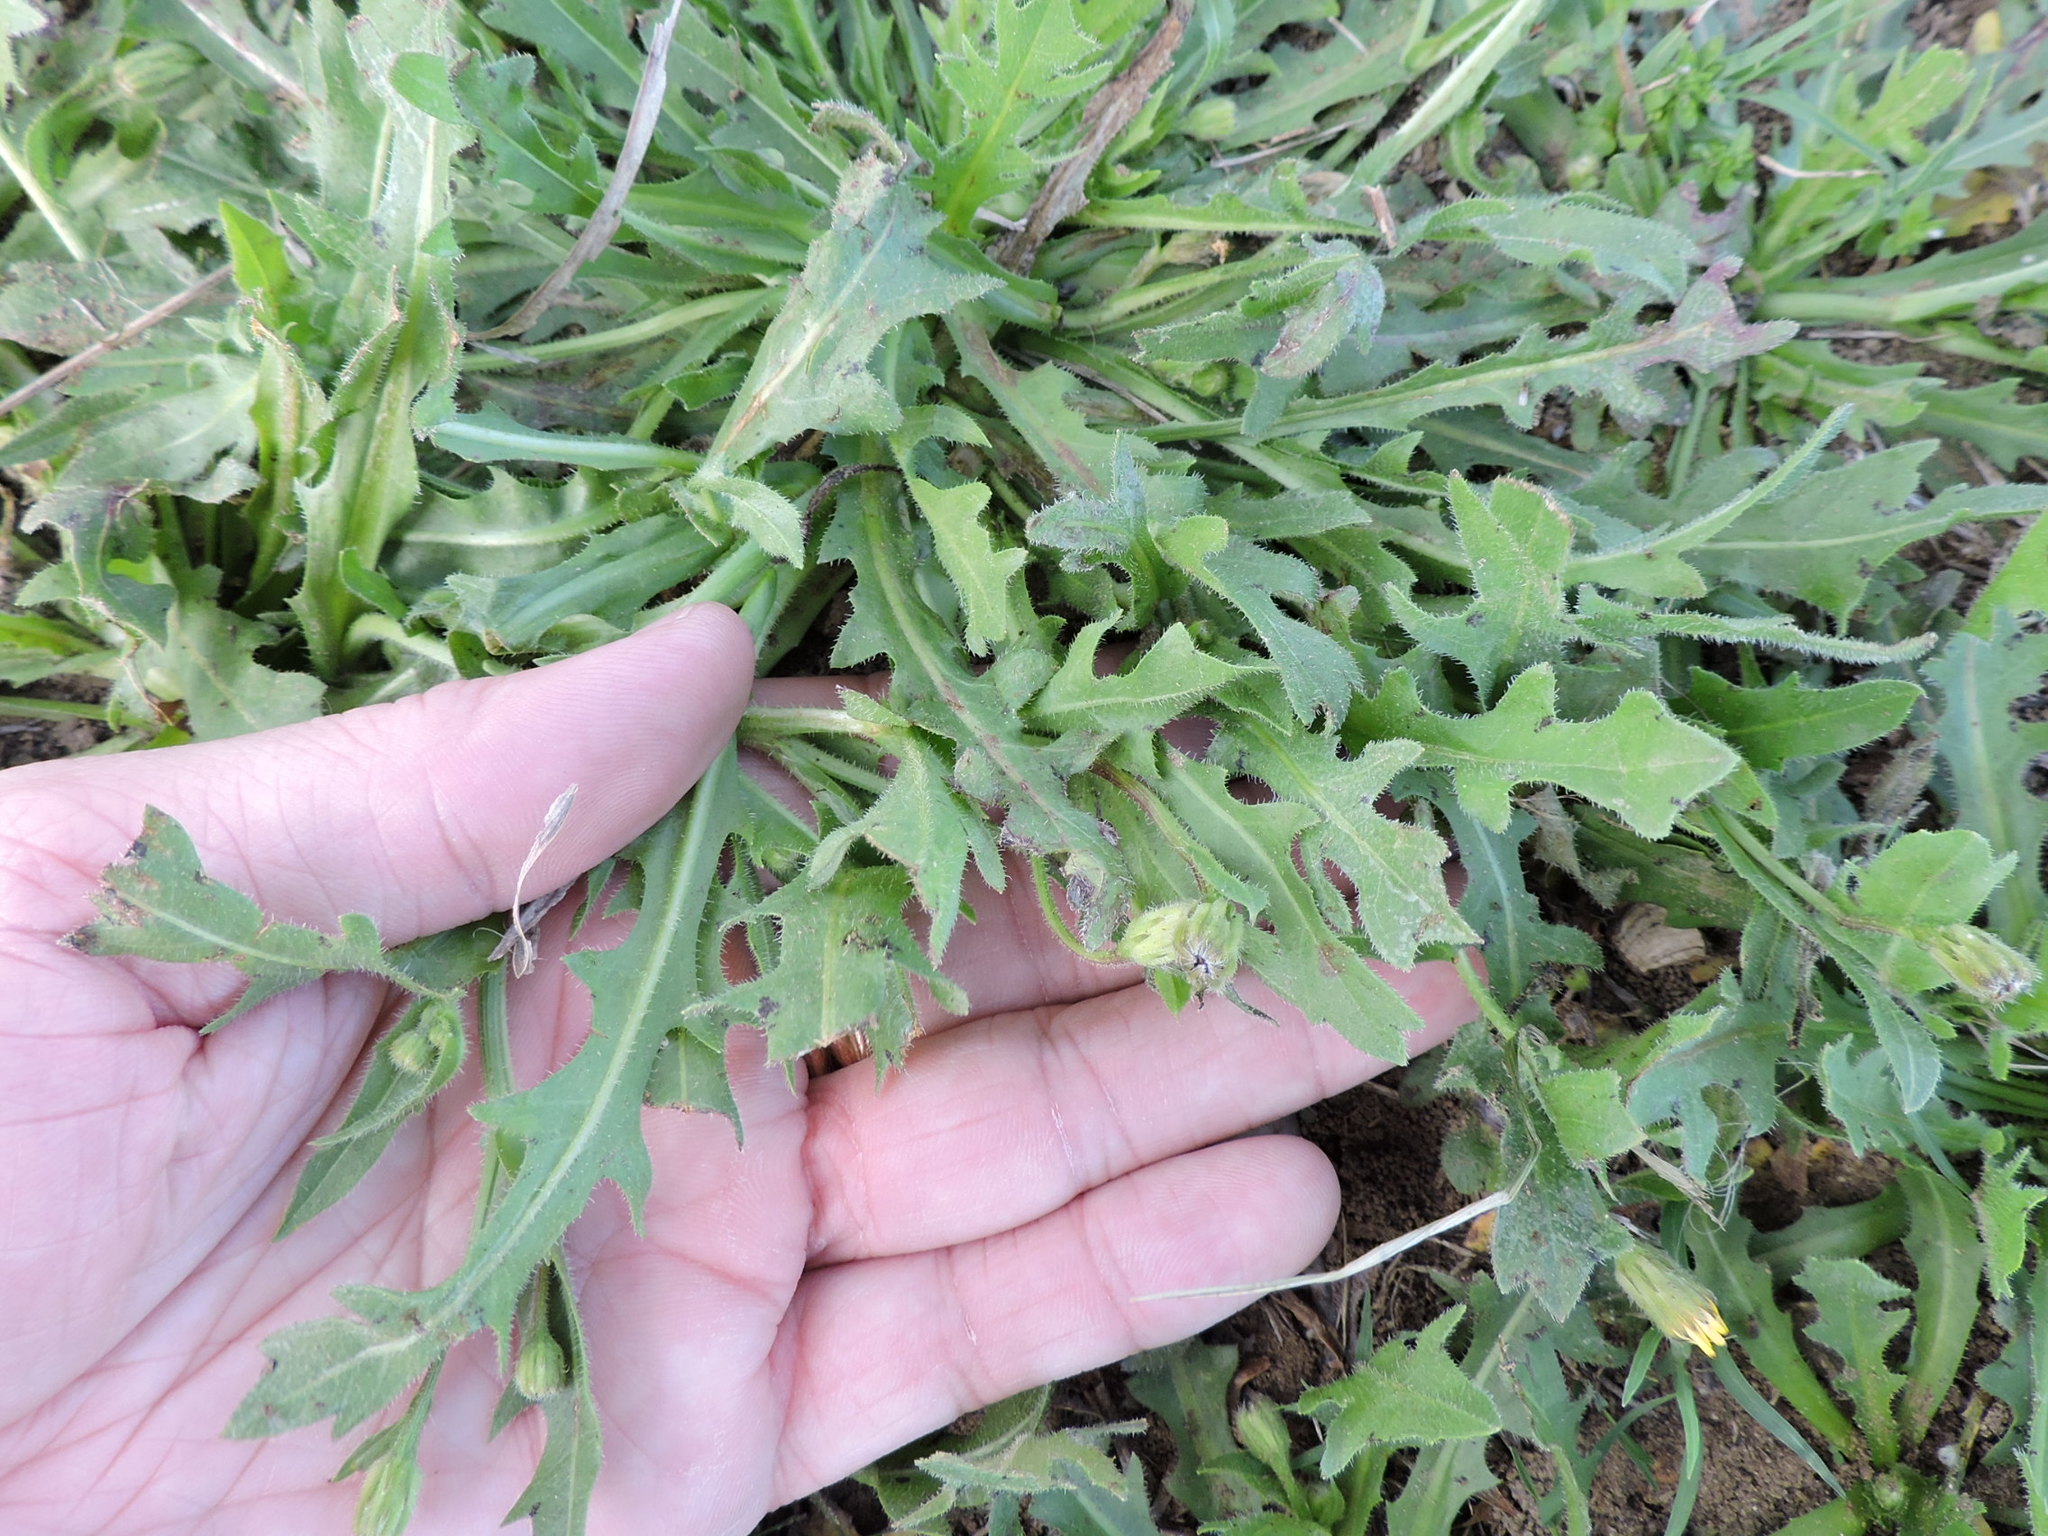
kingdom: Plantae
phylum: Tracheophyta
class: Magnoliopsida
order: Asterales
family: Asteraceae
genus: Hedypnois
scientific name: Hedypnois rhagadioloides
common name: Cretan weed
